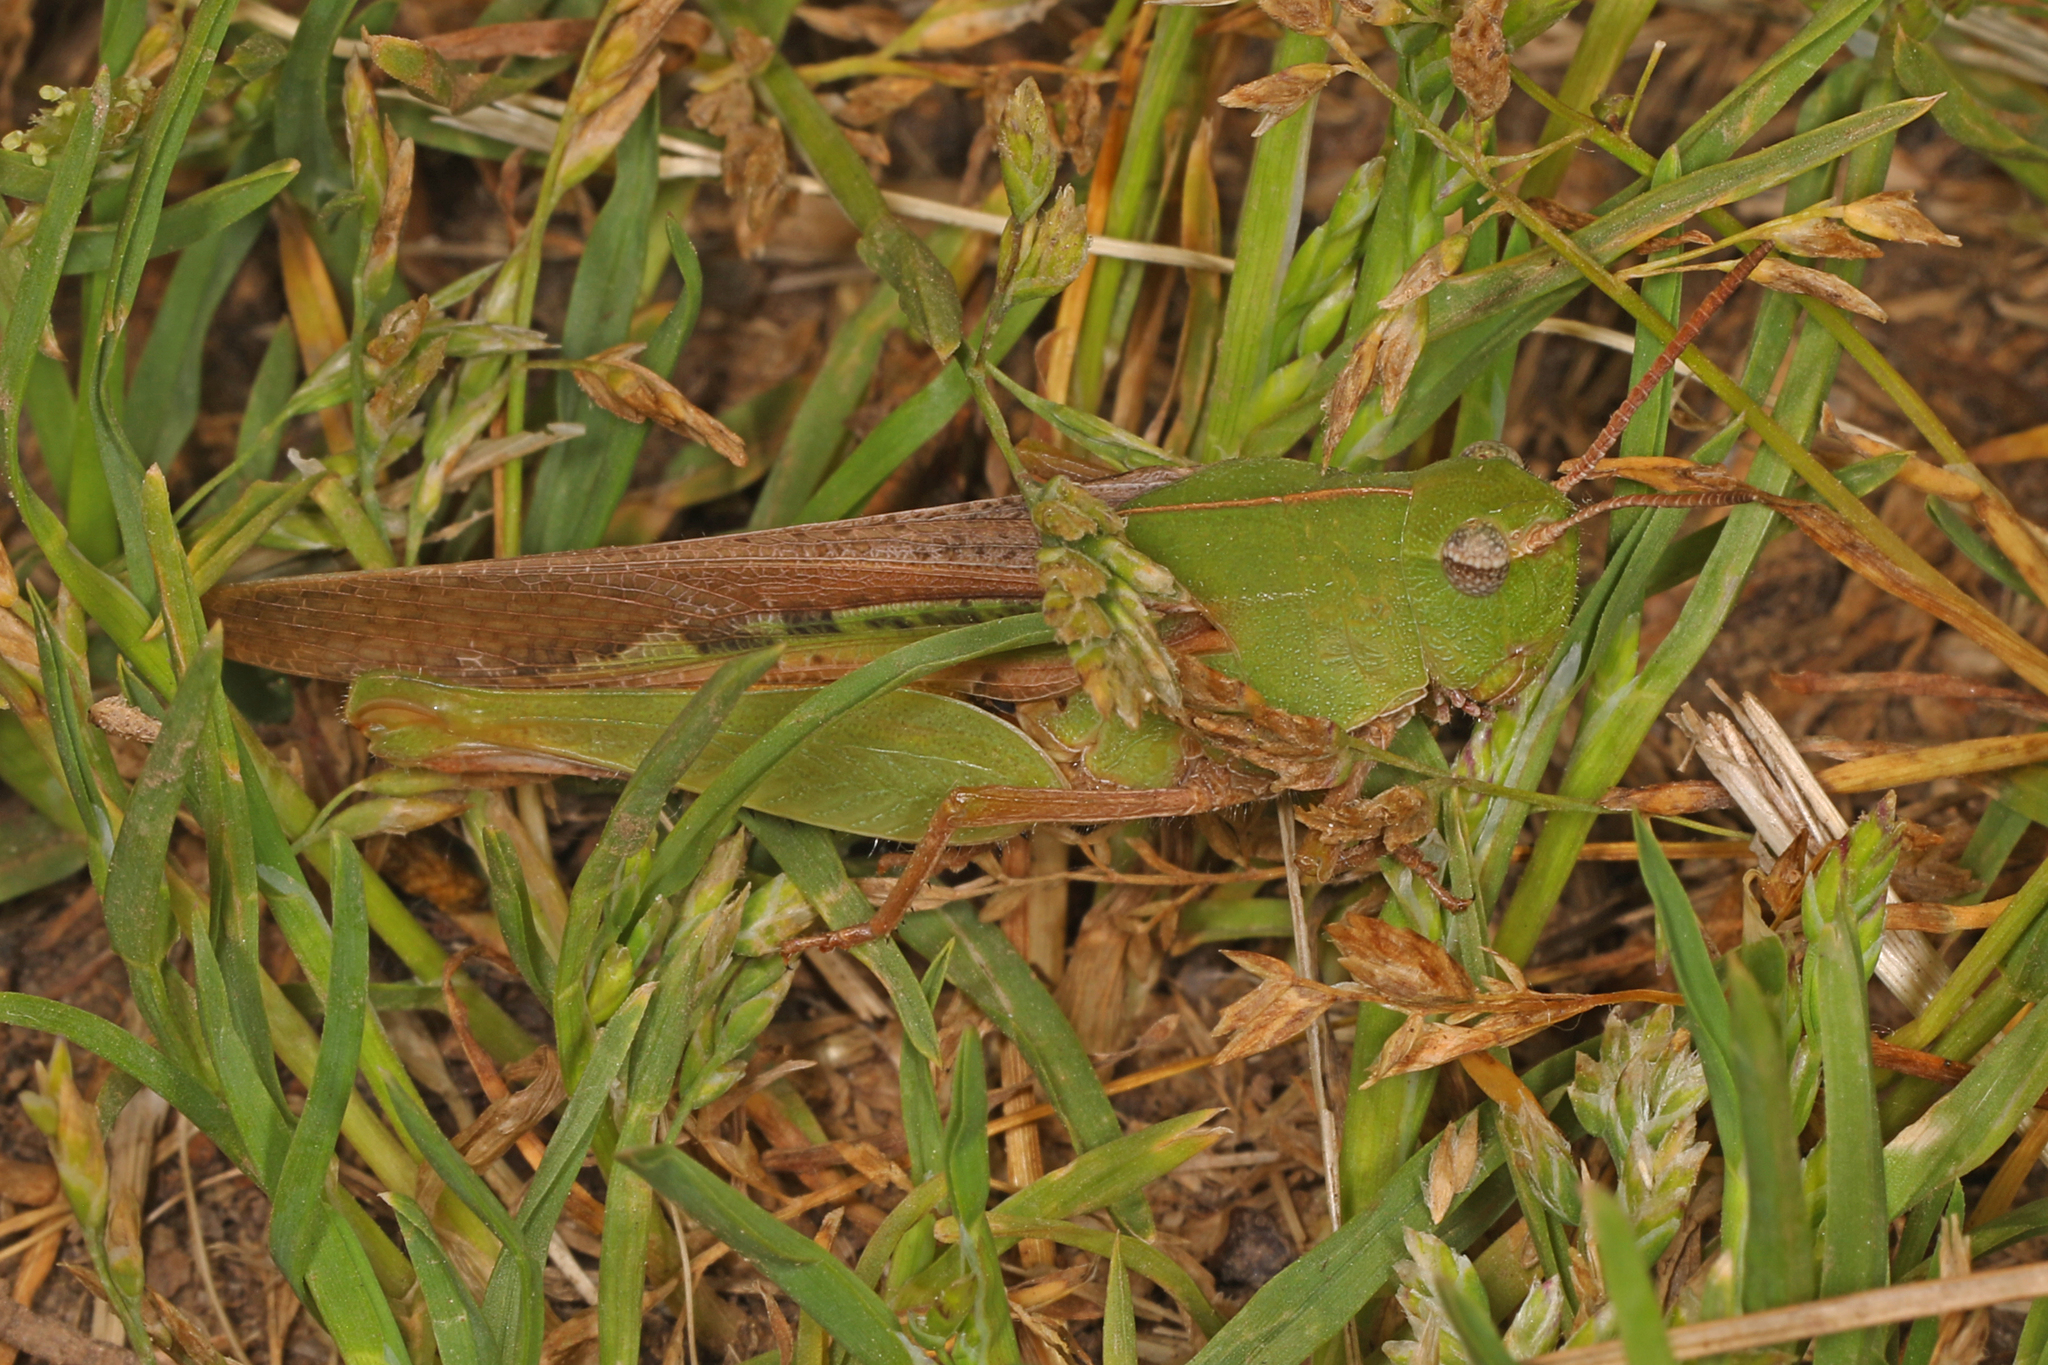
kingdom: Animalia
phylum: Arthropoda
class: Insecta
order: Orthoptera
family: Acrididae
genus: Chortophaga
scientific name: Chortophaga viridifasciata
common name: Green-striped grasshopper
